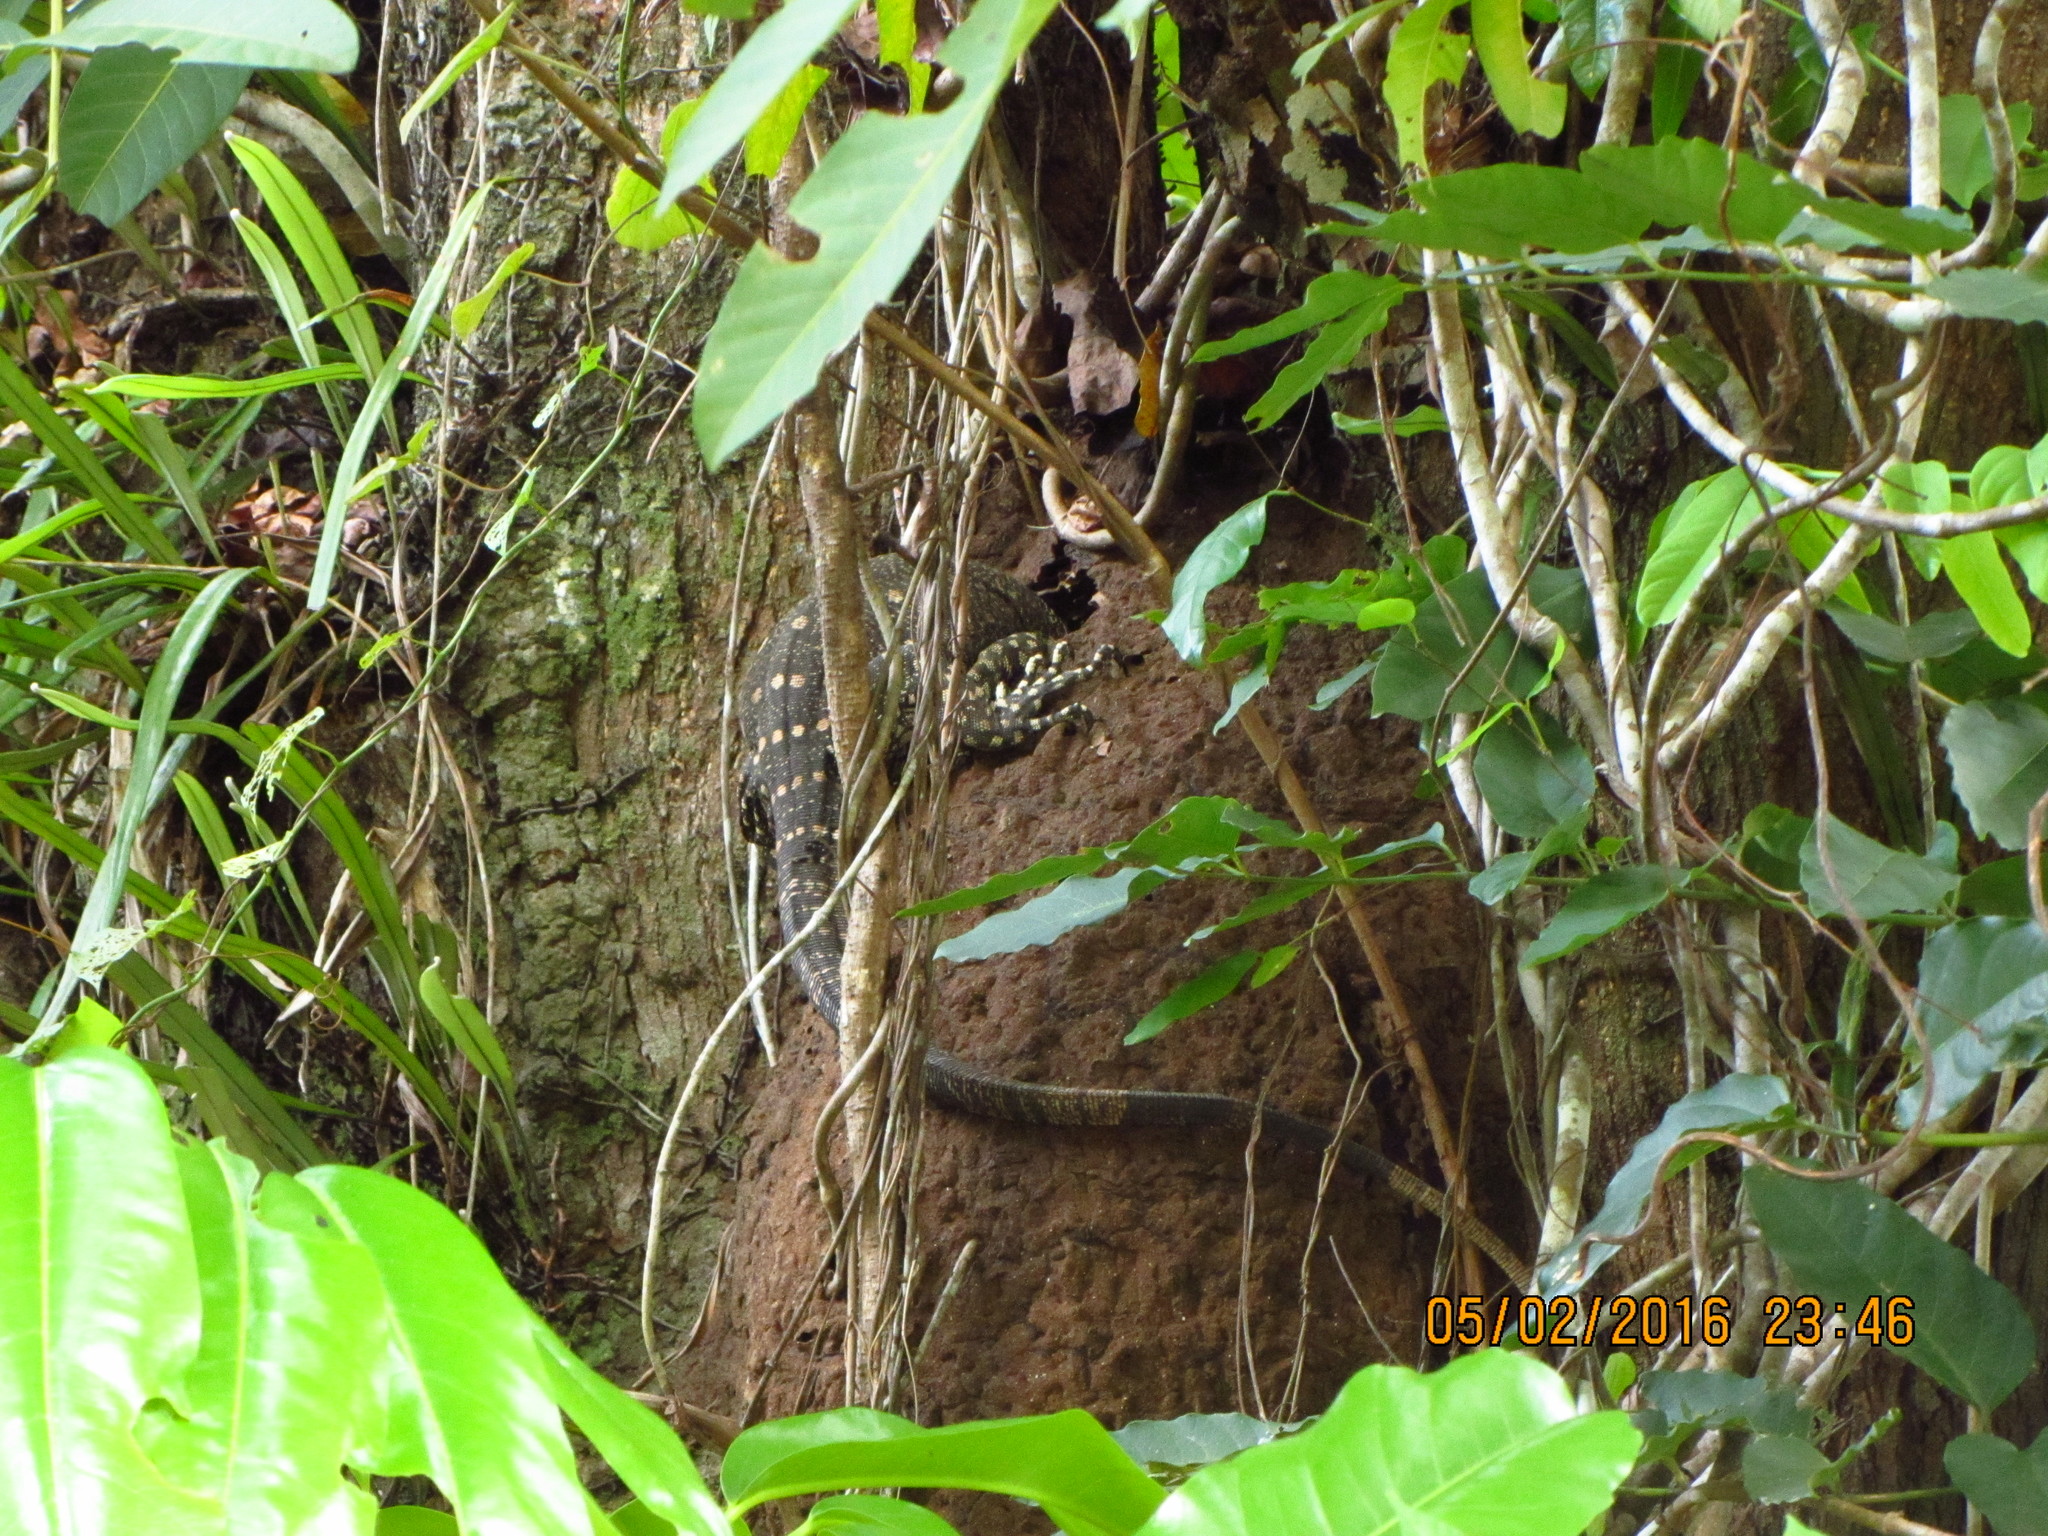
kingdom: Animalia
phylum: Chordata
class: Squamata
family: Varanidae
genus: Varanus
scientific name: Varanus varius
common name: Lace monitor
